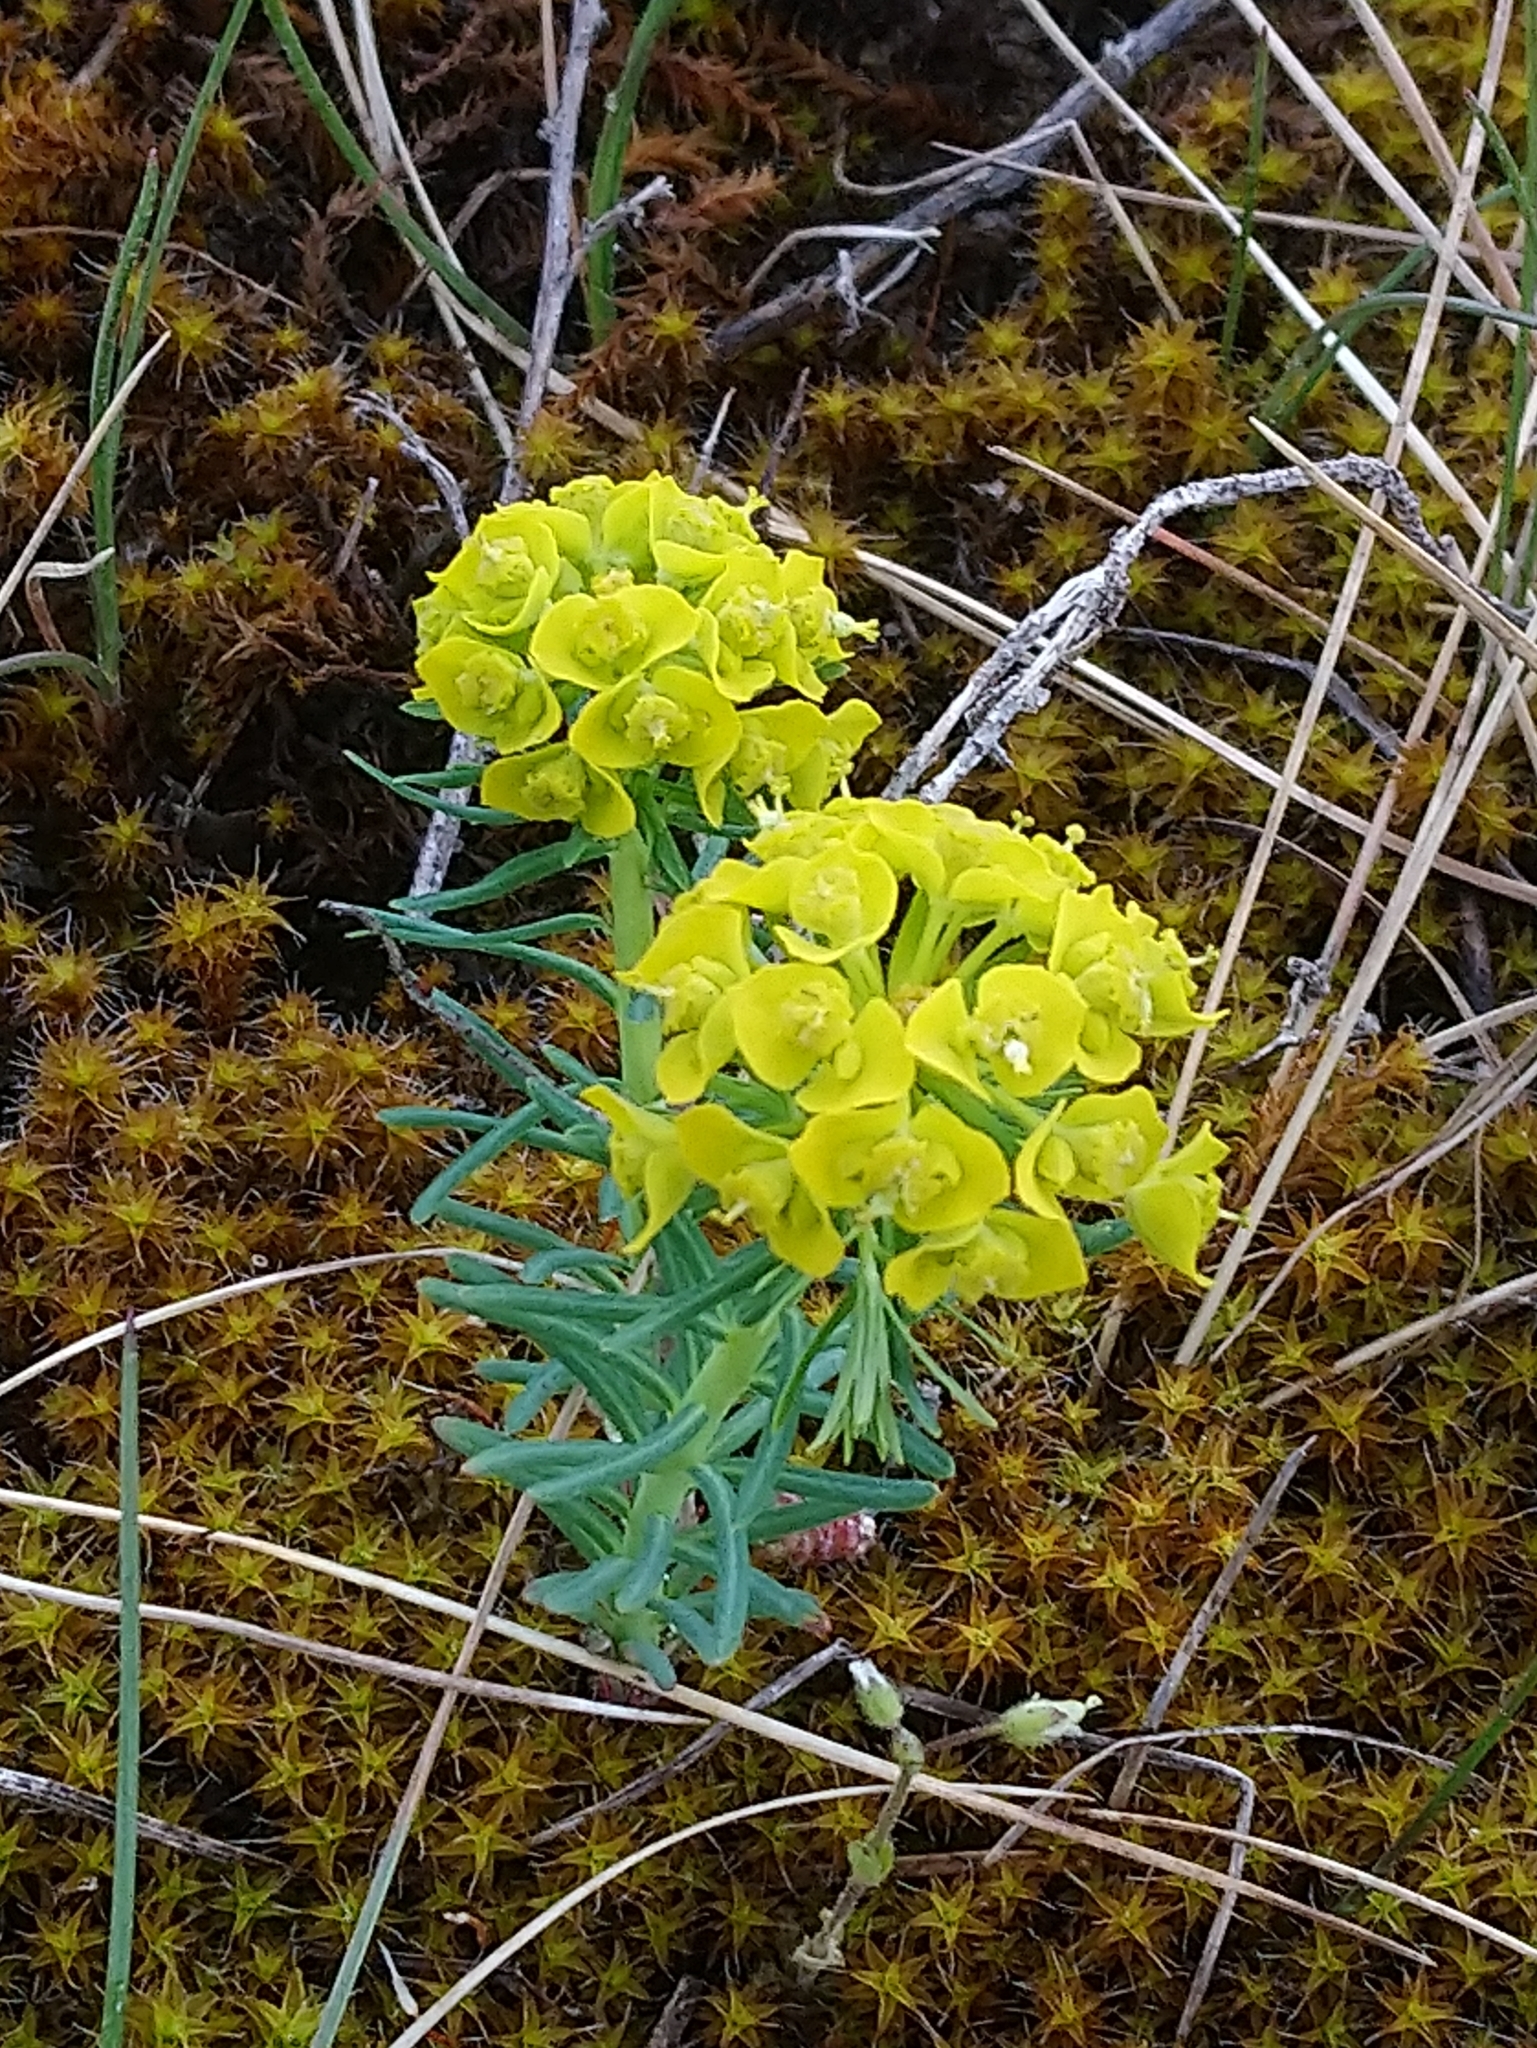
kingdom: Plantae
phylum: Tracheophyta
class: Magnoliopsida
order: Malpighiales
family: Euphorbiaceae
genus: Euphorbia
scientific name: Euphorbia cyparissias
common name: Cypress spurge
